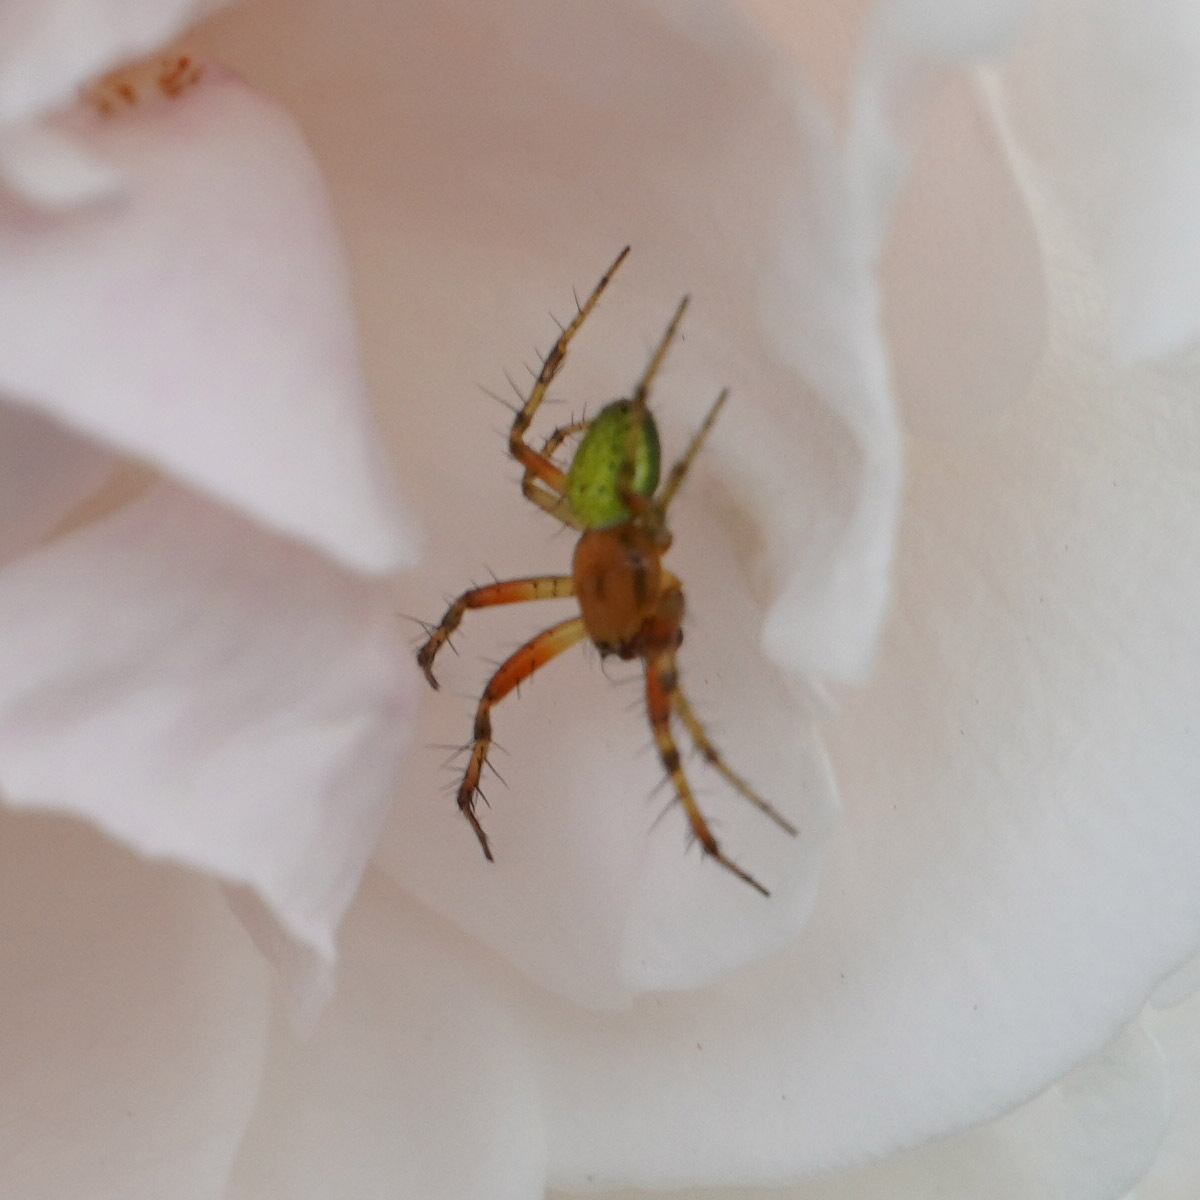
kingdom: Animalia
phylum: Arthropoda
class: Arachnida
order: Araneae
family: Araneidae
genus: Araniella
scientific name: Araniella
